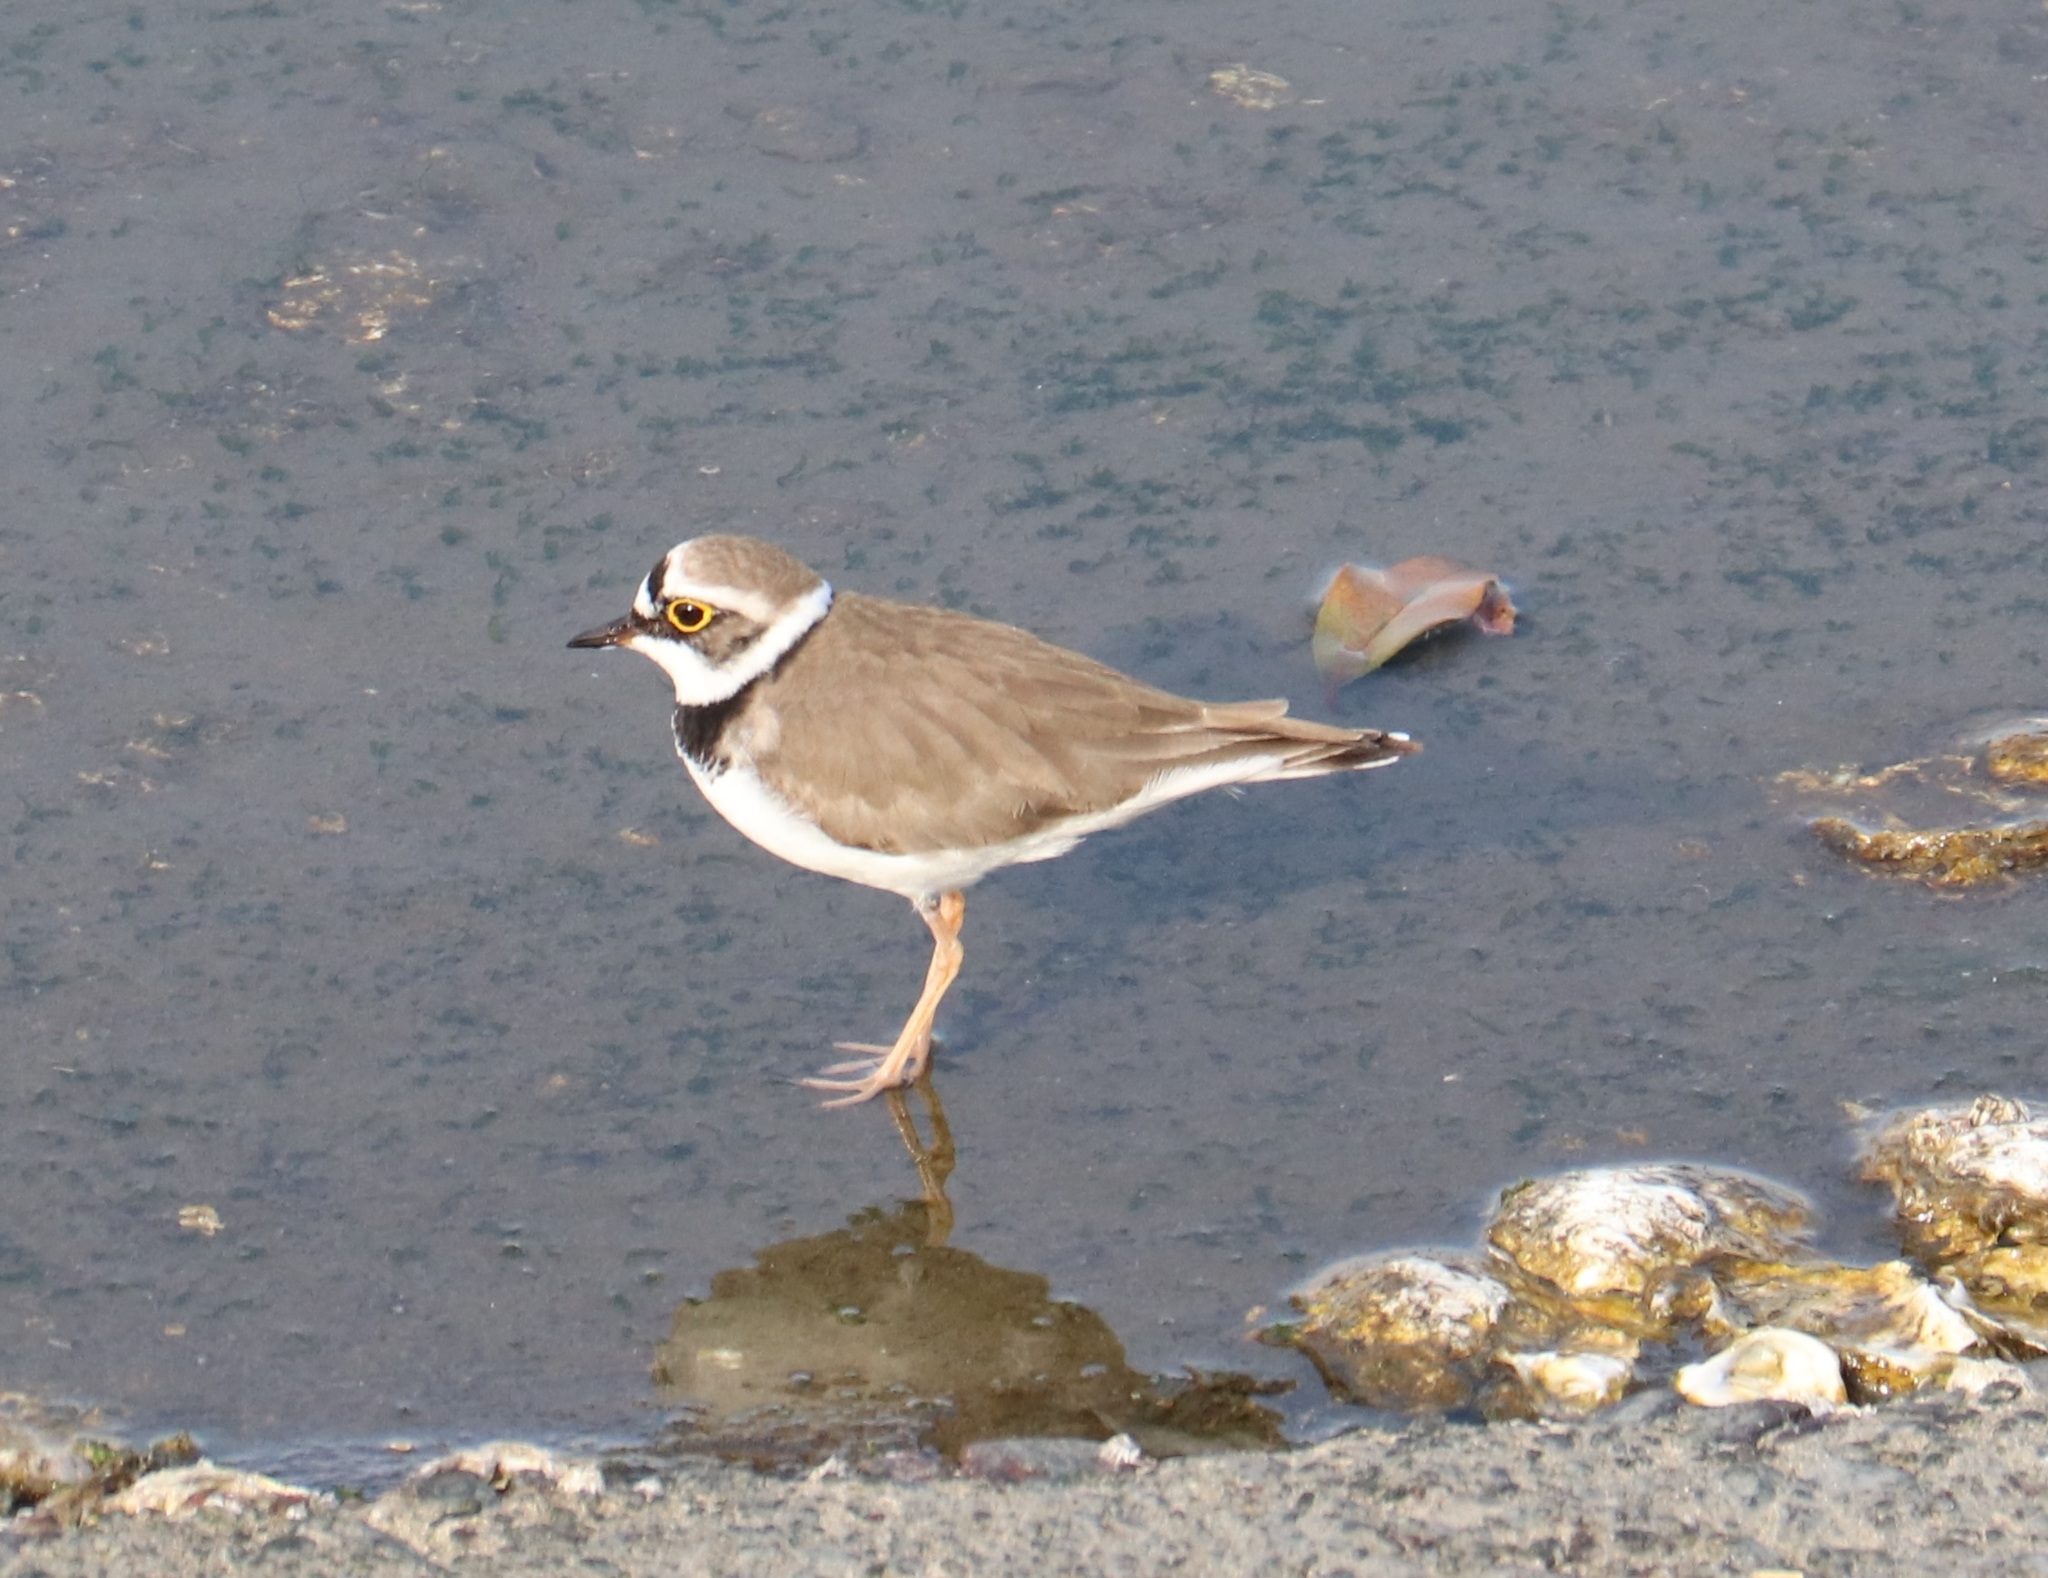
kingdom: Animalia
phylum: Chordata
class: Aves
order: Charadriiformes
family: Charadriidae
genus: Charadrius
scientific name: Charadrius dubius
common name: Little ringed plover
